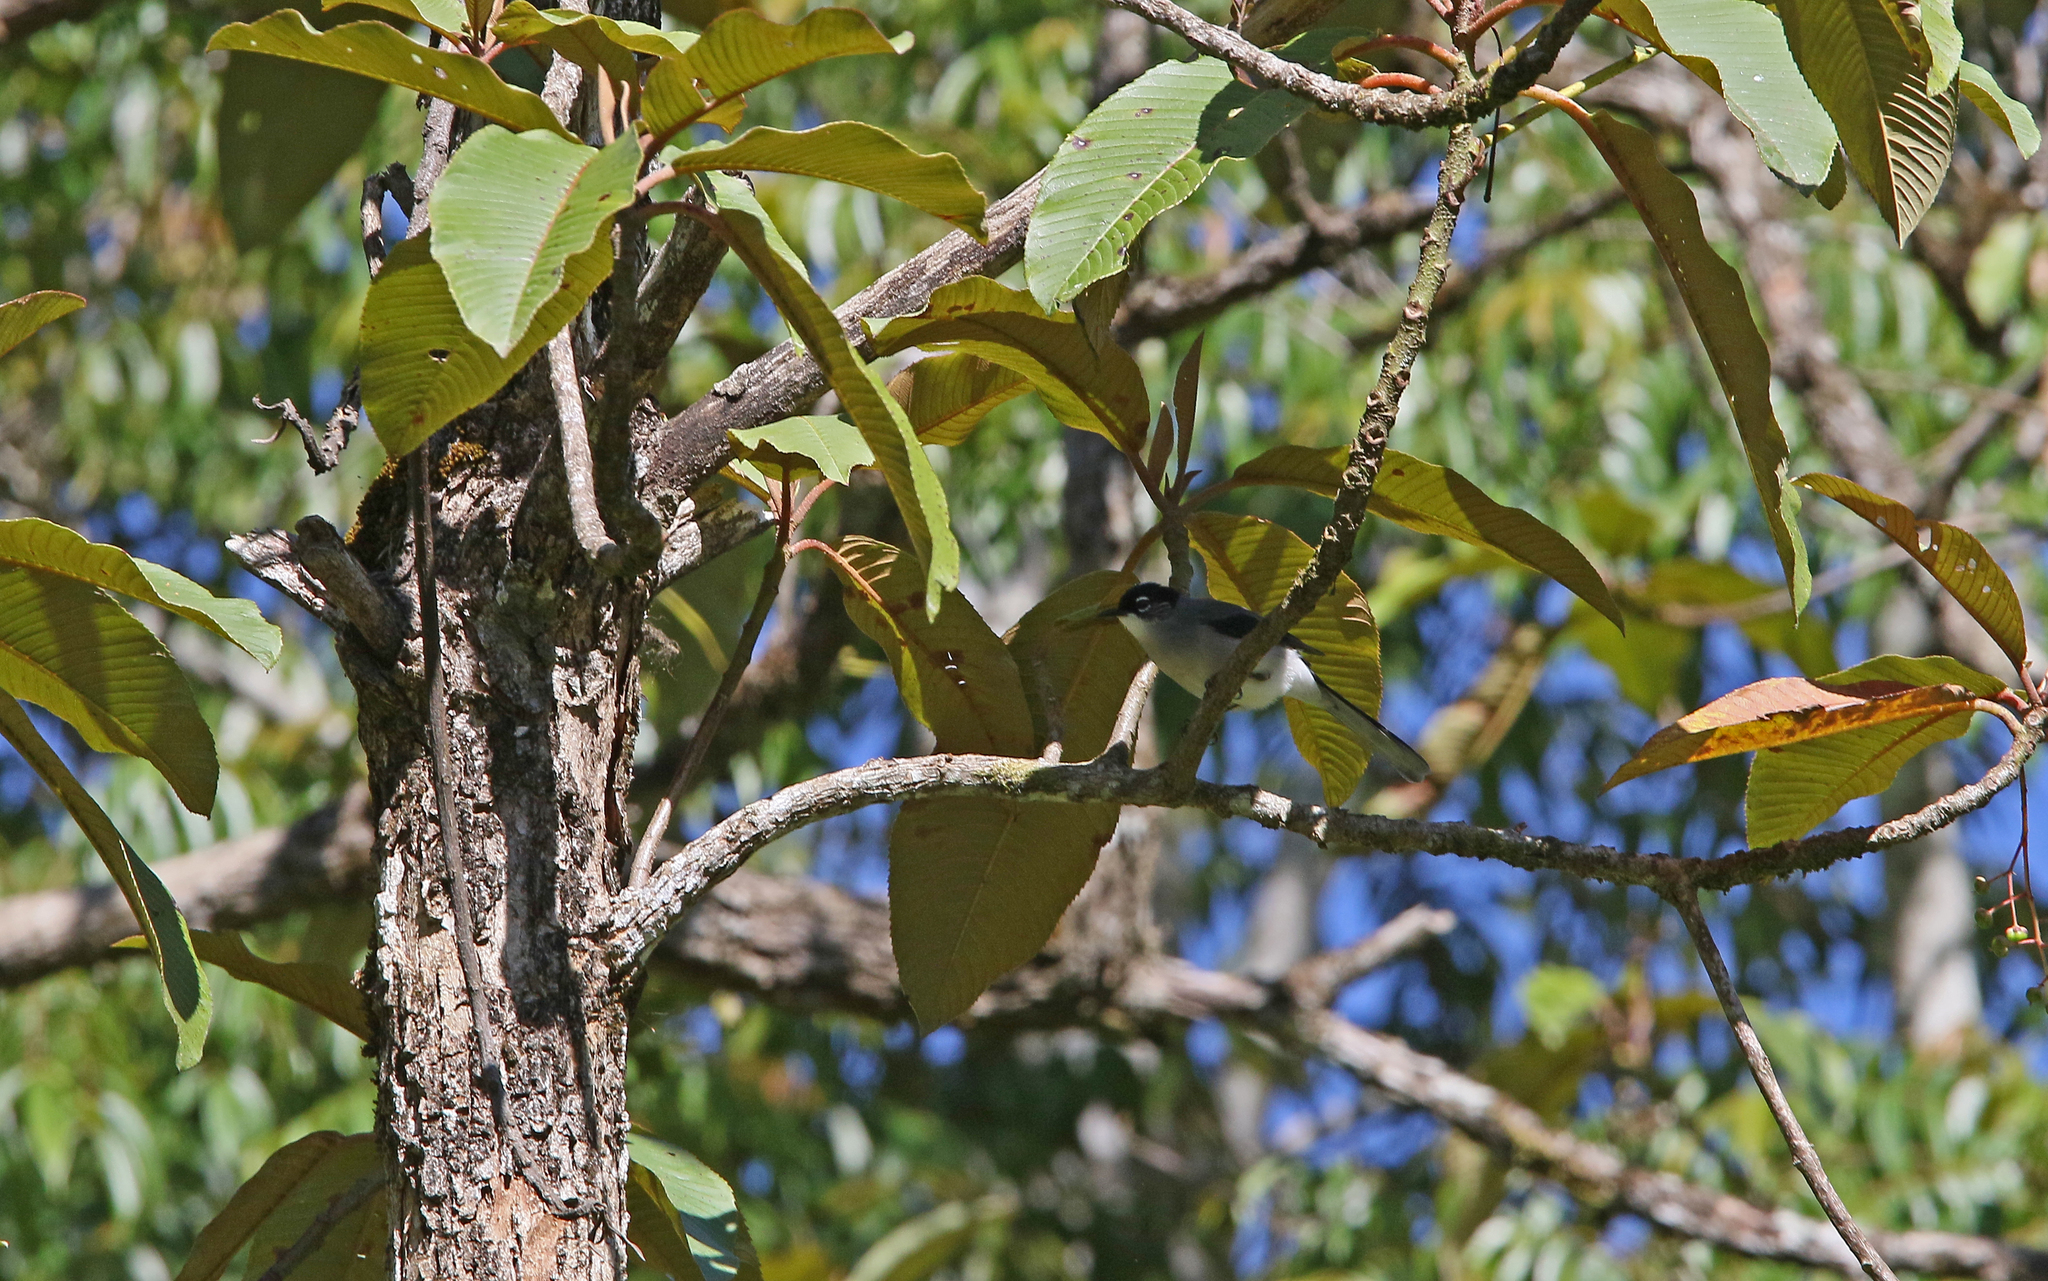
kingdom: Animalia
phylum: Chordata
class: Aves
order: Passeriformes
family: Leiothrichidae
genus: Heterophasia
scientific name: Heterophasia desgodinsi
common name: Black-headed sibia
